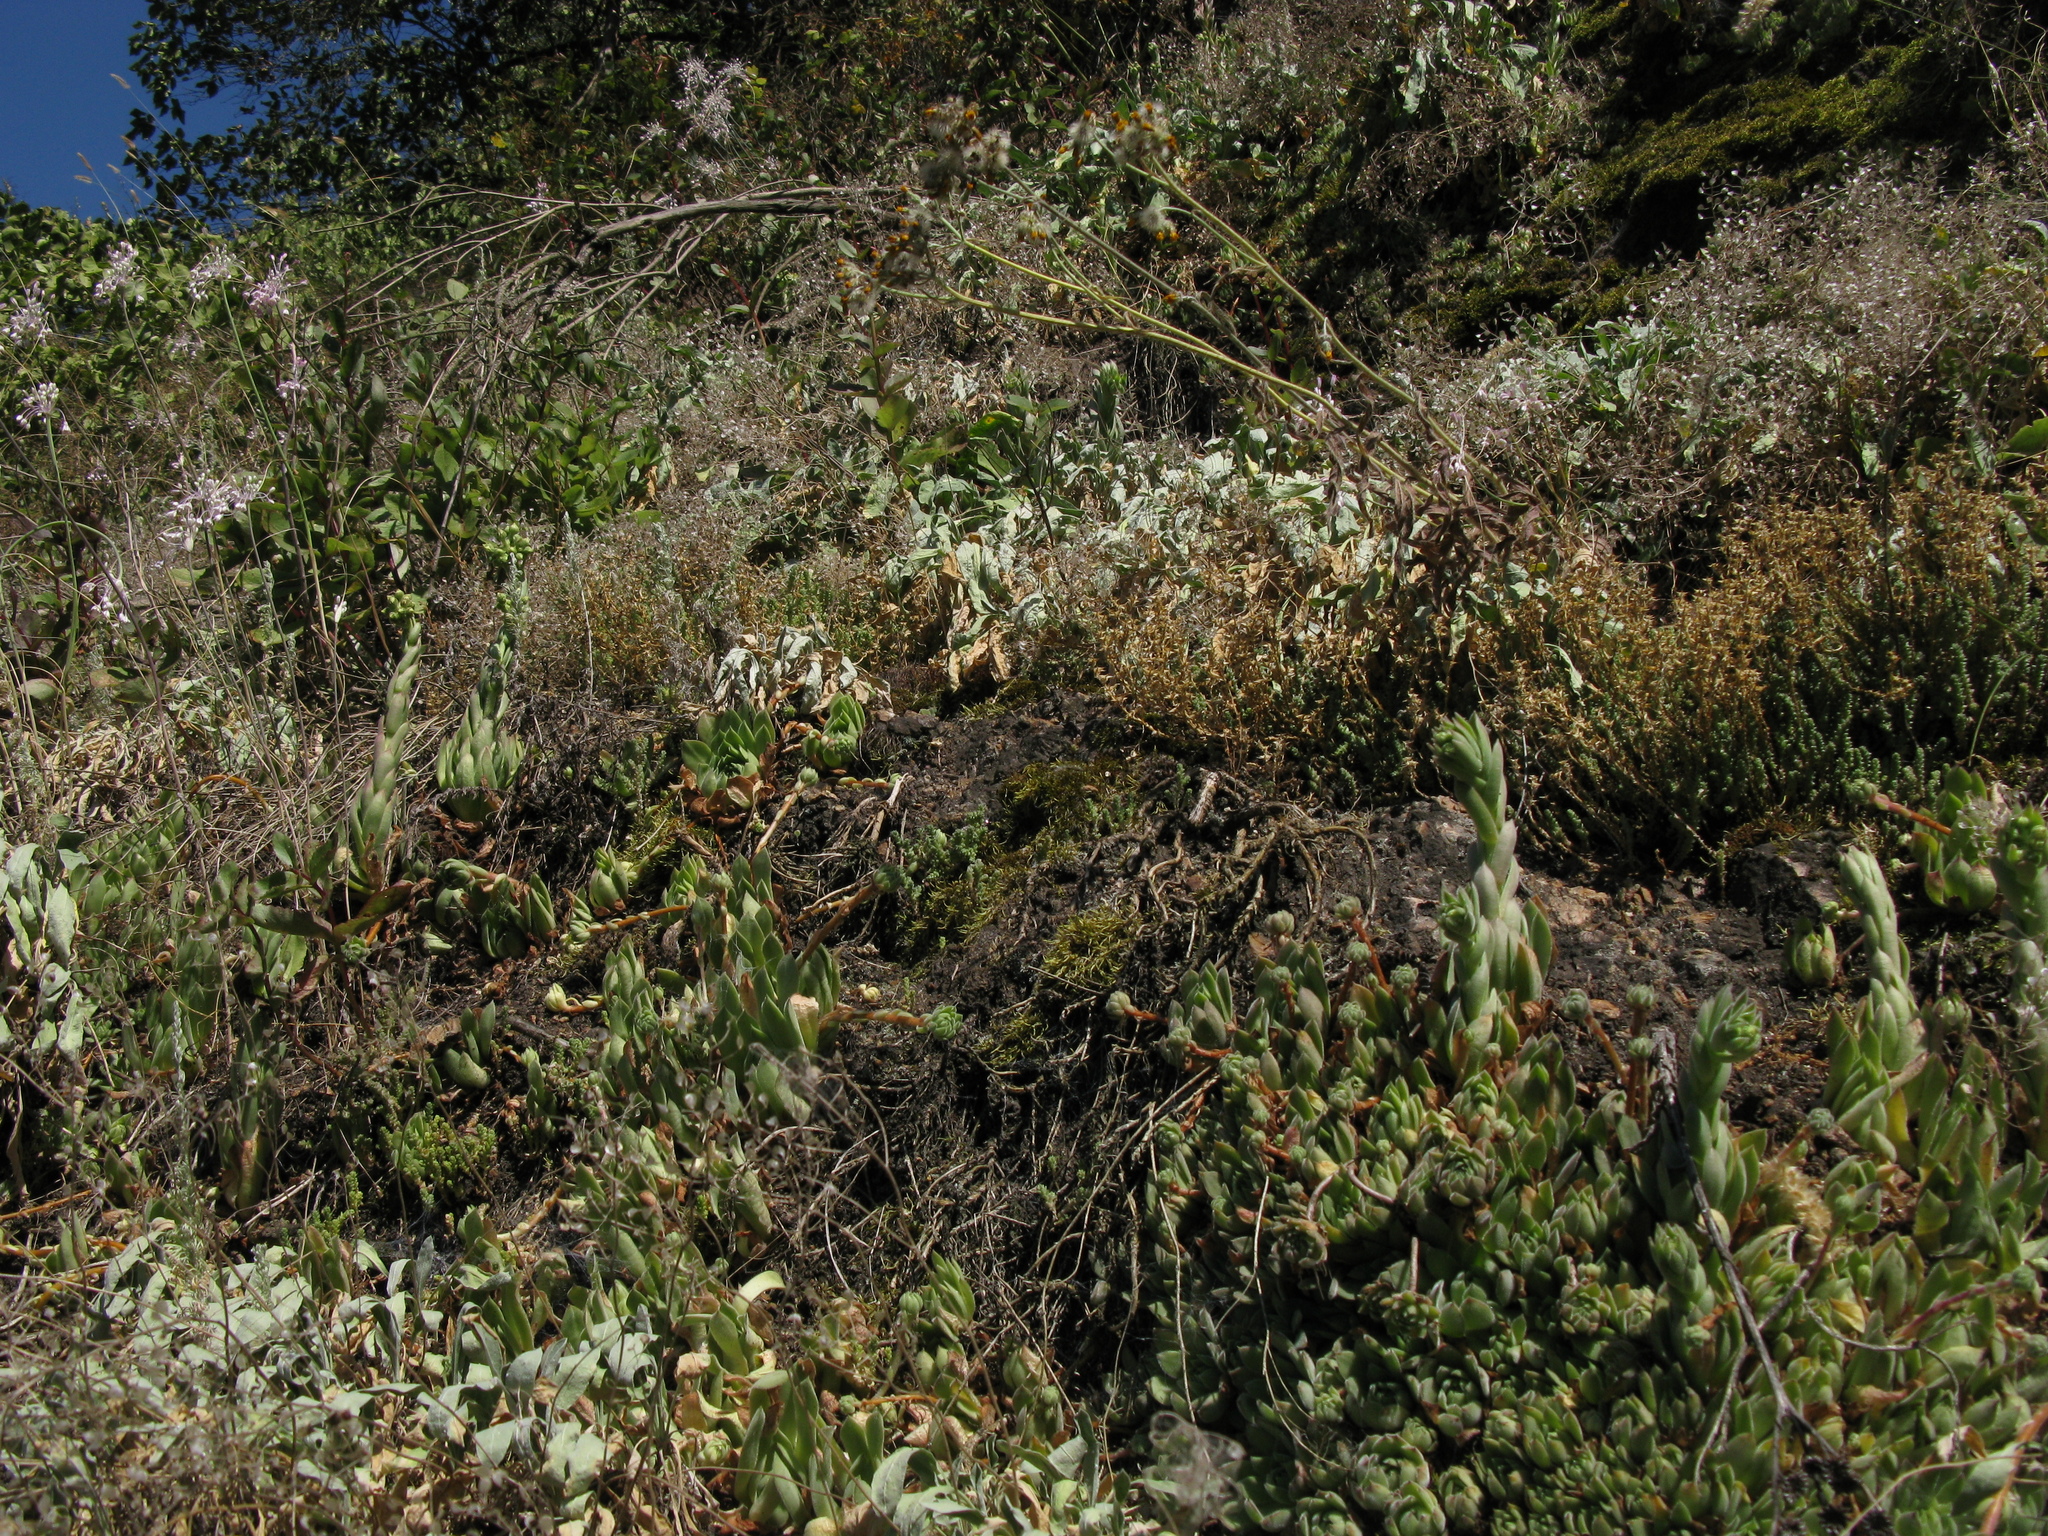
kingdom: Plantae
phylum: Tracheophyta
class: Magnoliopsida
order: Saxifragales
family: Crassulaceae
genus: Sempervivum
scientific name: Sempervivum ruthenicum
